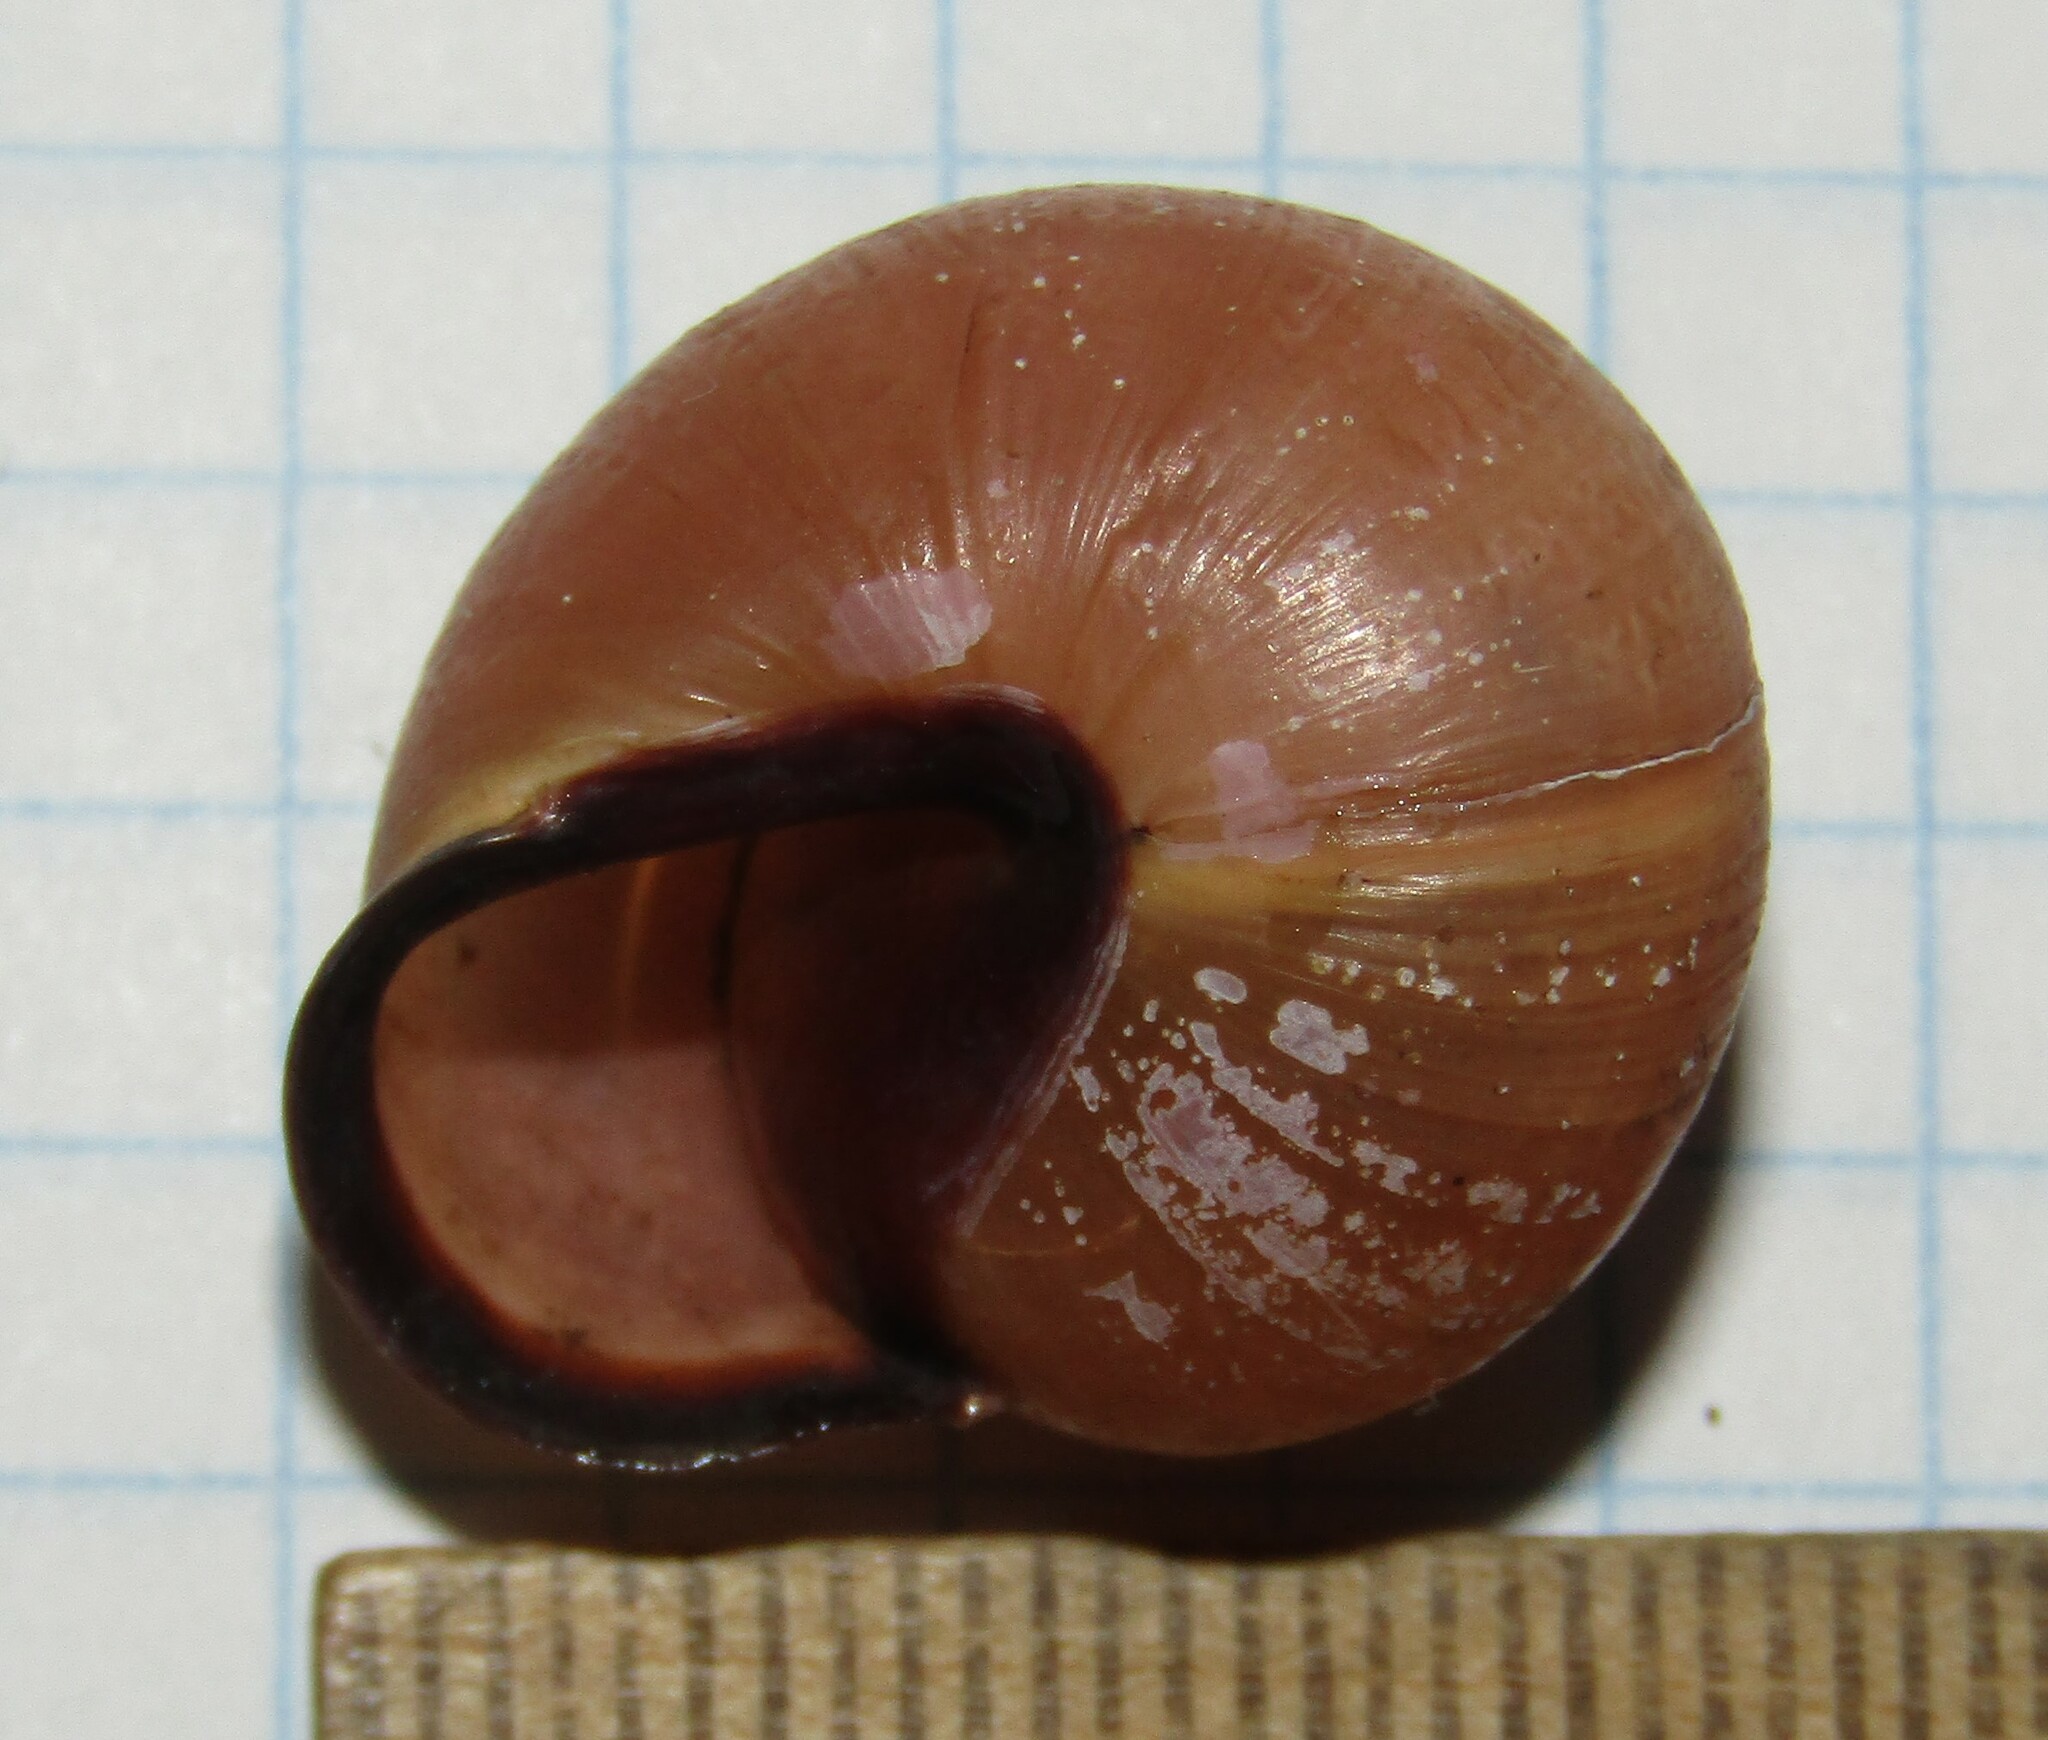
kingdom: Animalia
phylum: Mollusca
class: Gastropoda
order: Stylommatophora
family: Helicidae
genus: Cepaea
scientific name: Cepaea nemoralis
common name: Grovesnail
